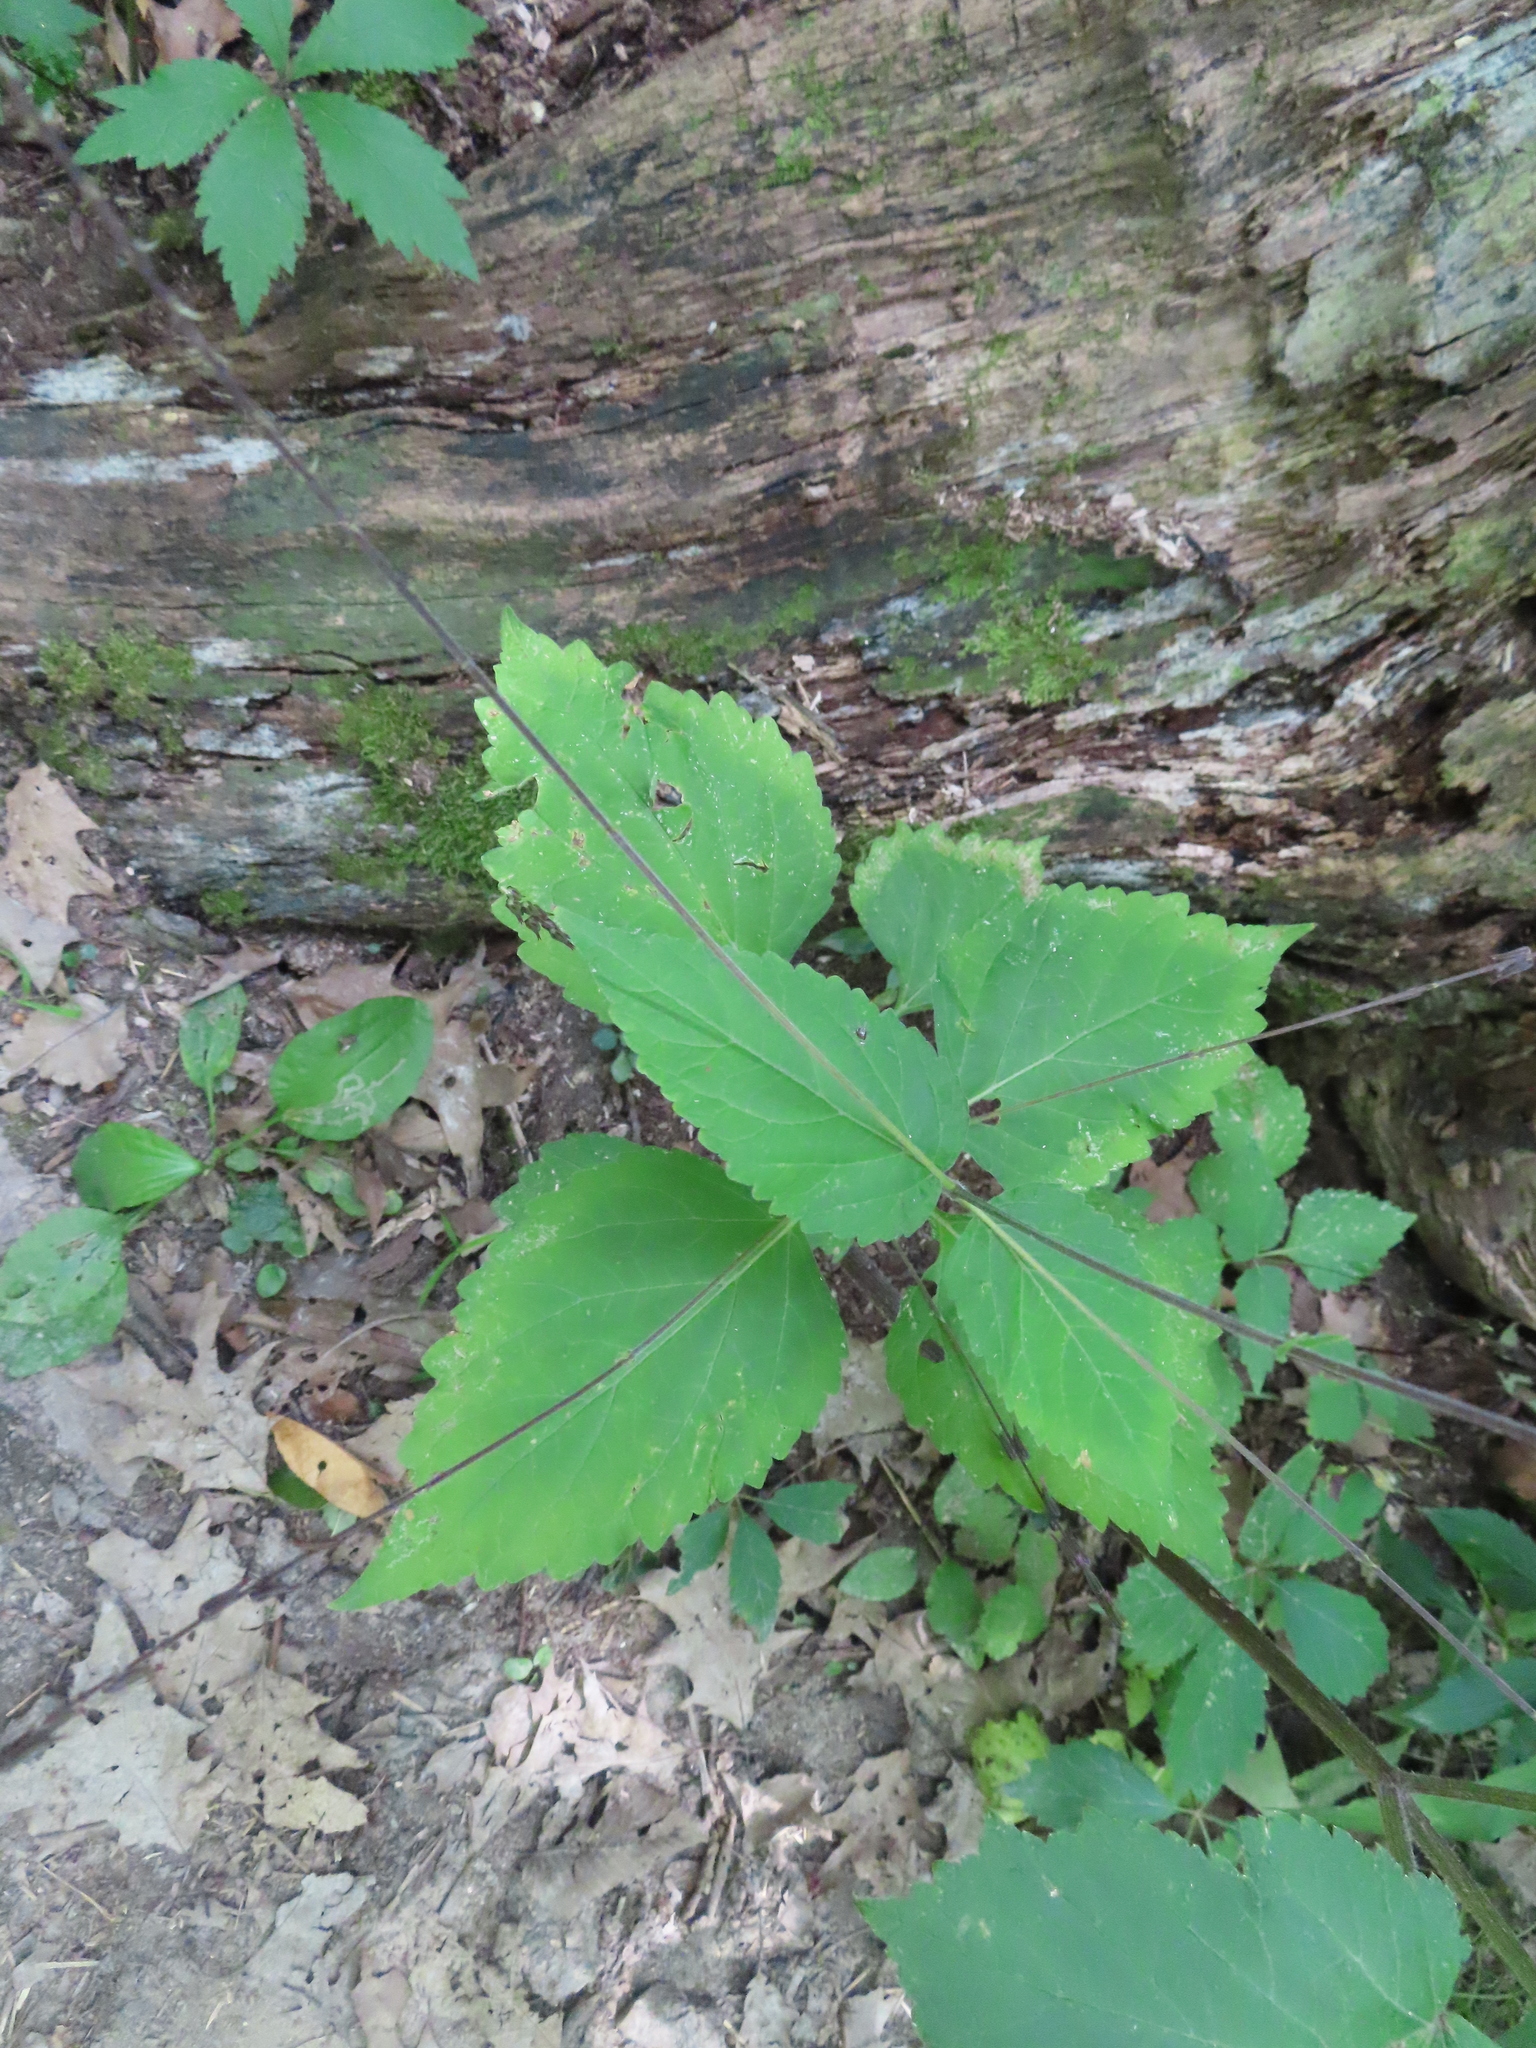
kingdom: Plantae
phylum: Tracheophyta
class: Magnoliopsida
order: Lamiales
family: Phrymaceae
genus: Phryma
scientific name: Phryma leptostachya
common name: American lopseed
